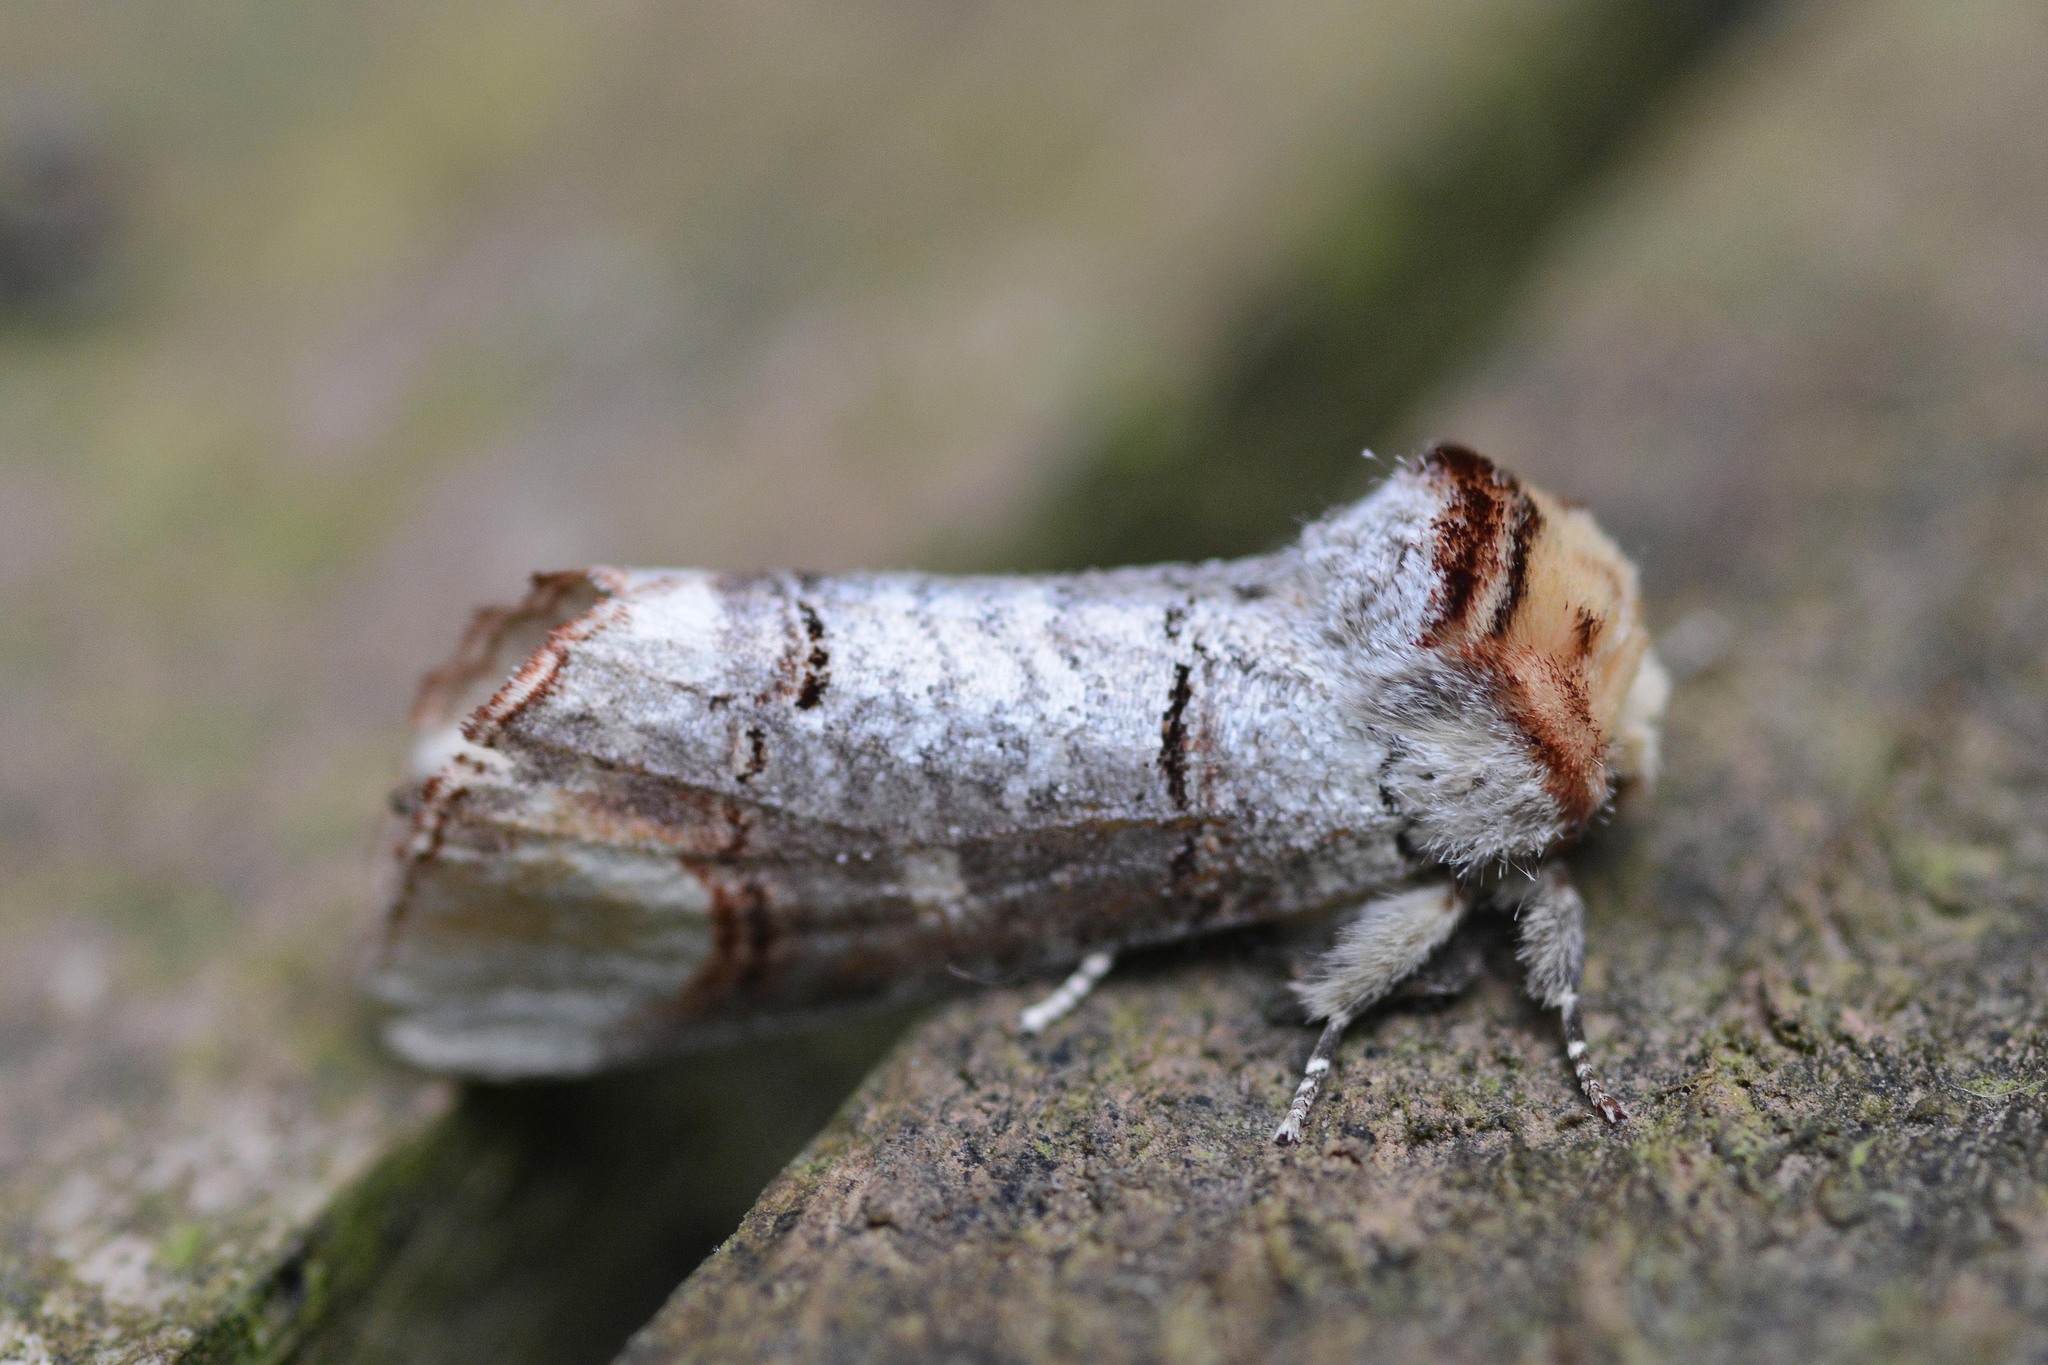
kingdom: Animalia
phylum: Arthropoda
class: Insecta
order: Lepidoptera
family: Notodontidae
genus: Phalera
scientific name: Phalera bucephala
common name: Buff-tip
